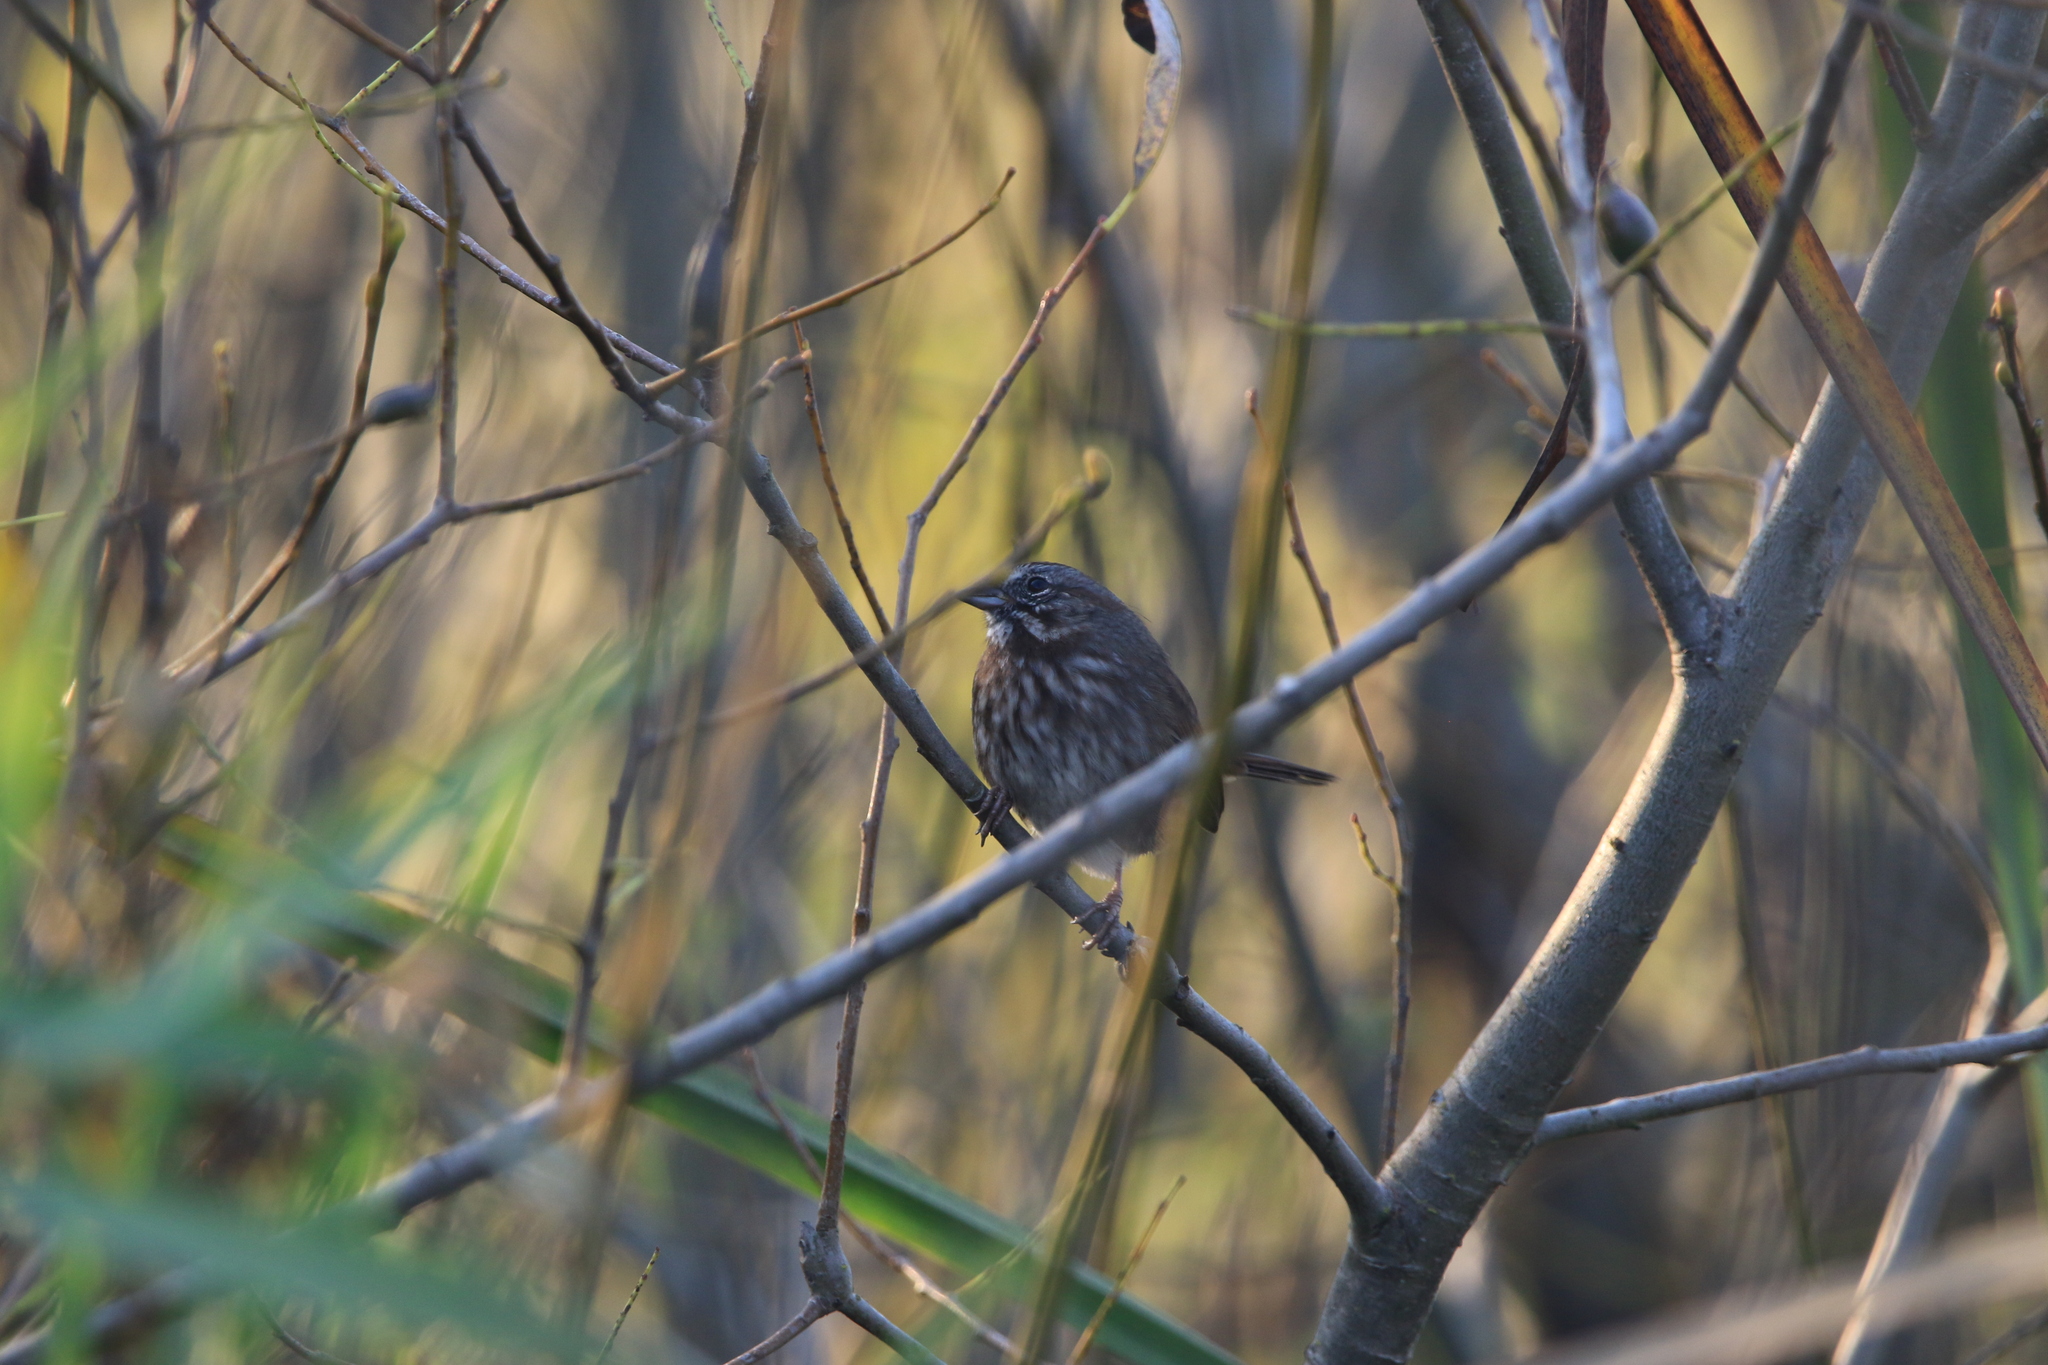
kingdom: Animalia
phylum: Chordata
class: Aves
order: Passeriformes
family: Passerellidae
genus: Melospiza
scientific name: Melospiza melodia
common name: Song sparrow
